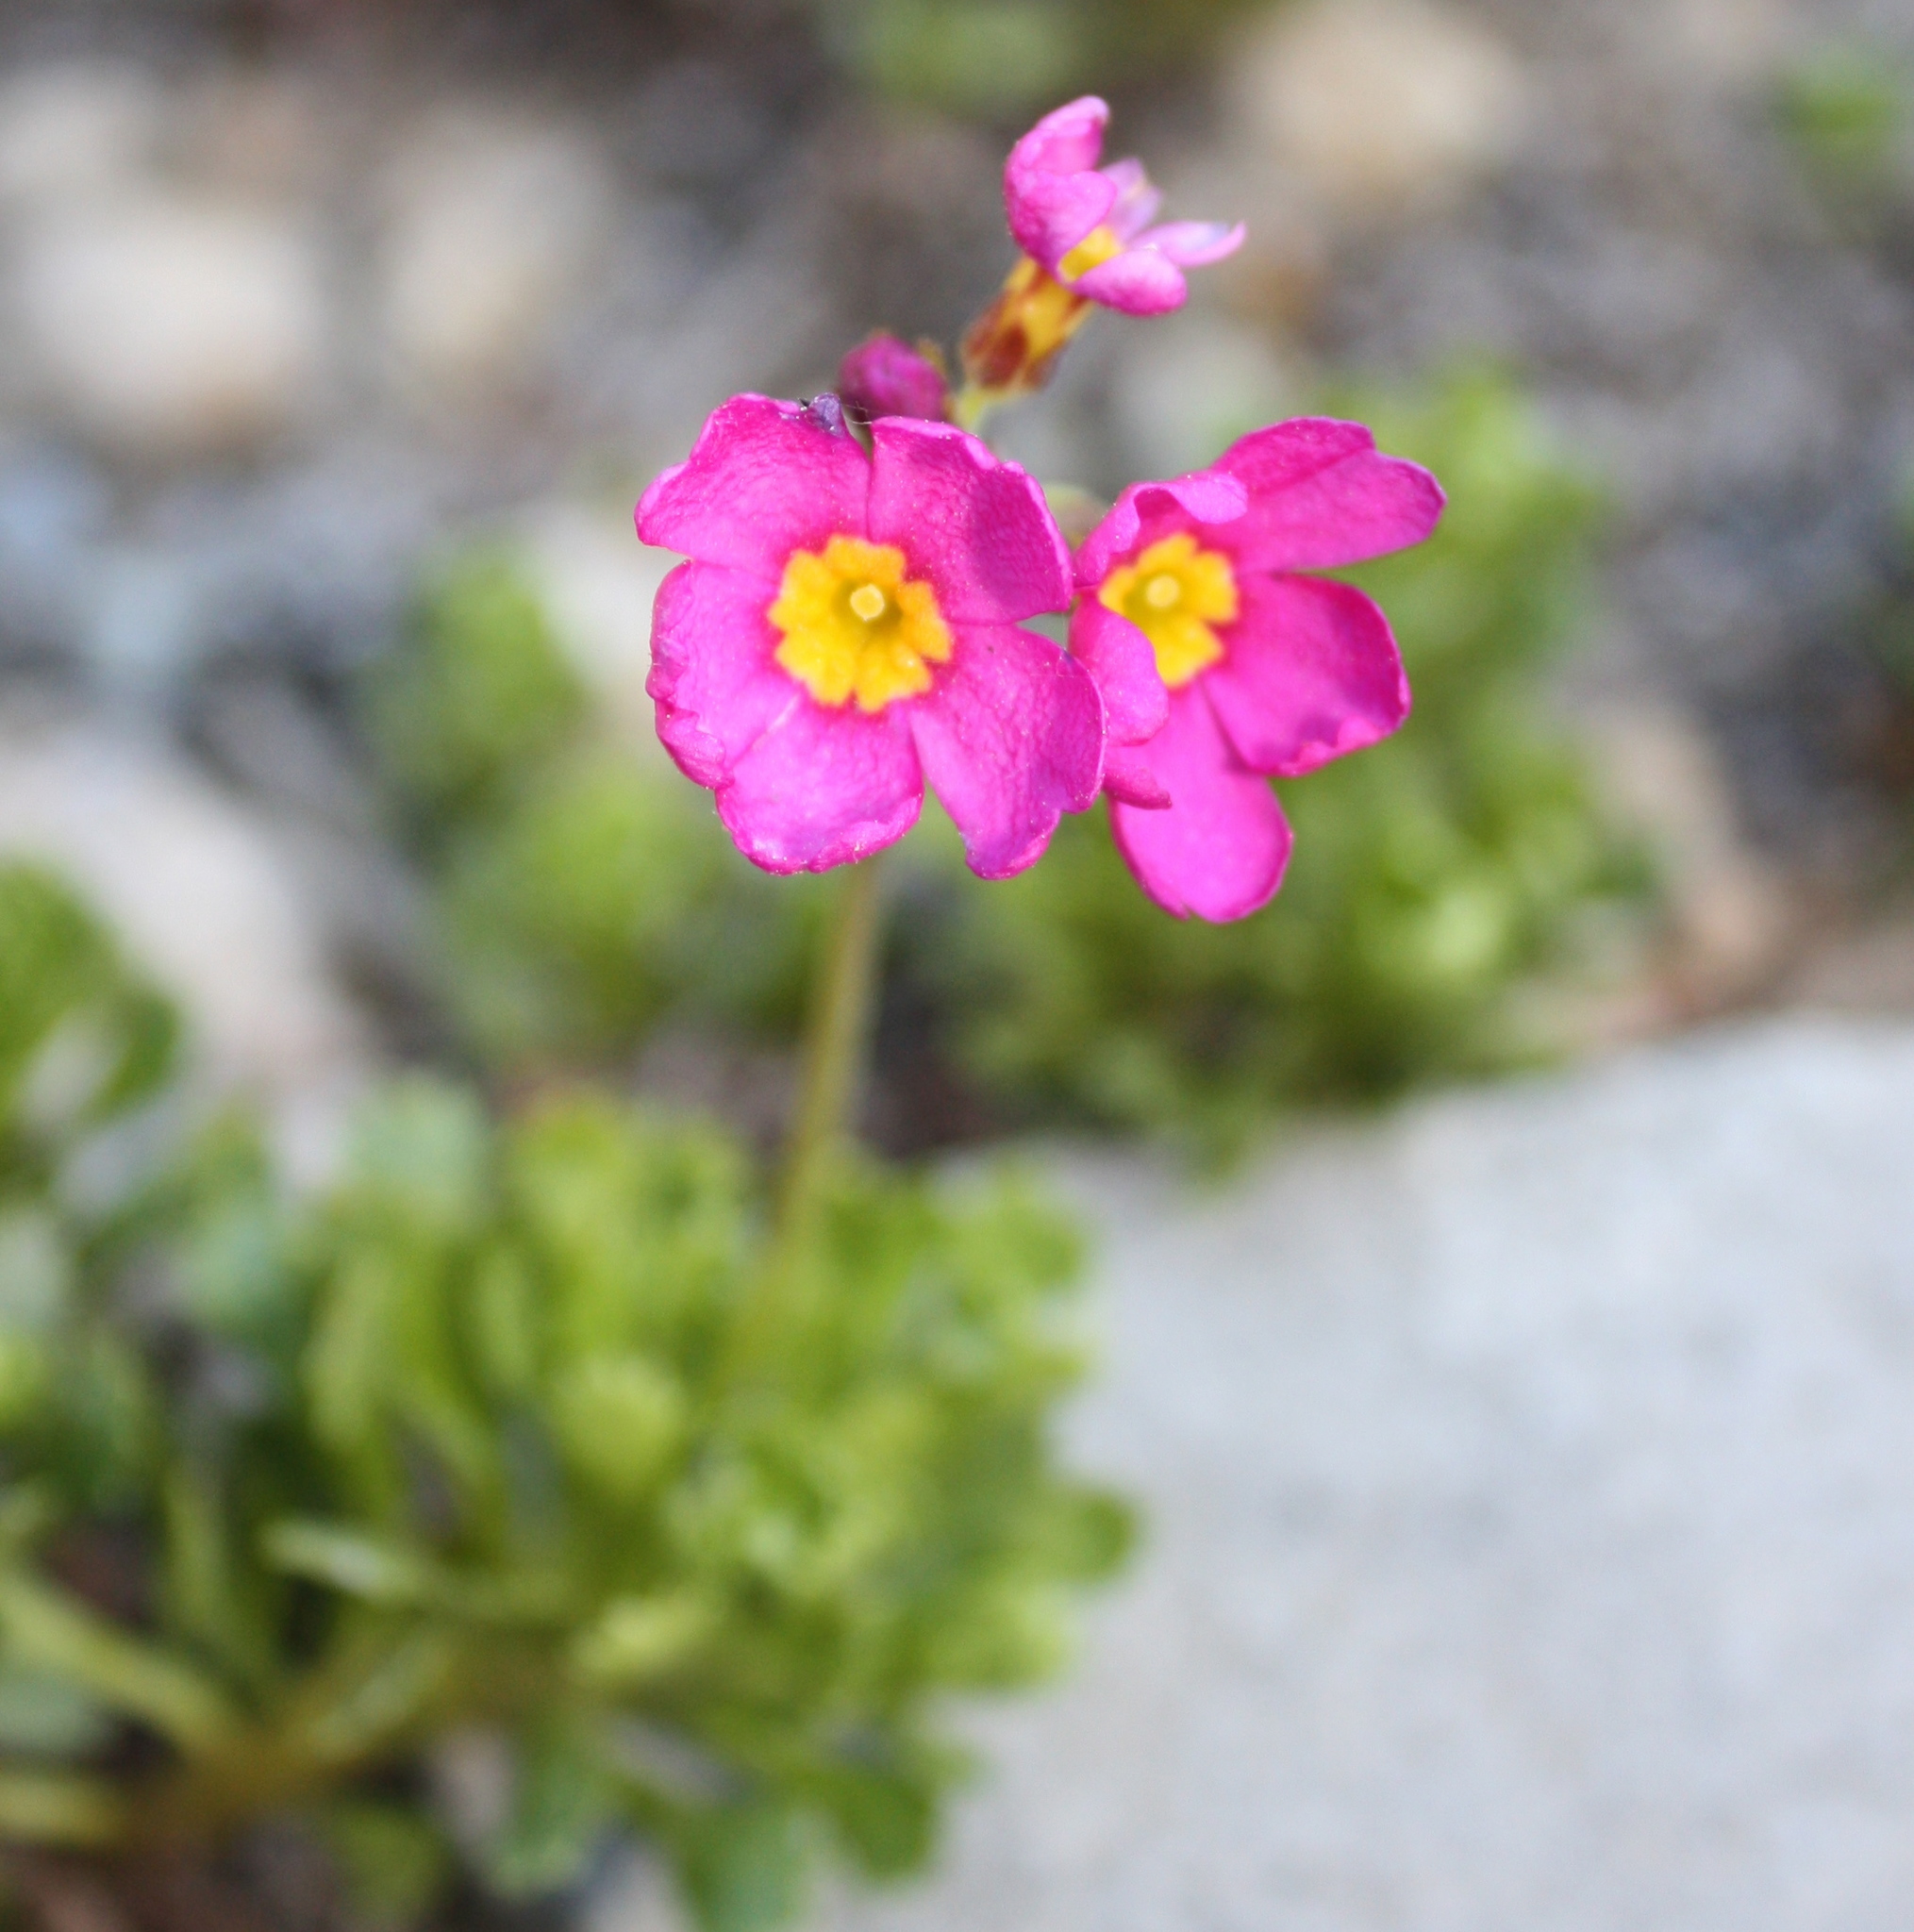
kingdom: Plantae
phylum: Tracheophyta
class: Magnoliopsida
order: Ericales
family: Primulaceae
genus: Primula
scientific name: Primula suffrutescens
